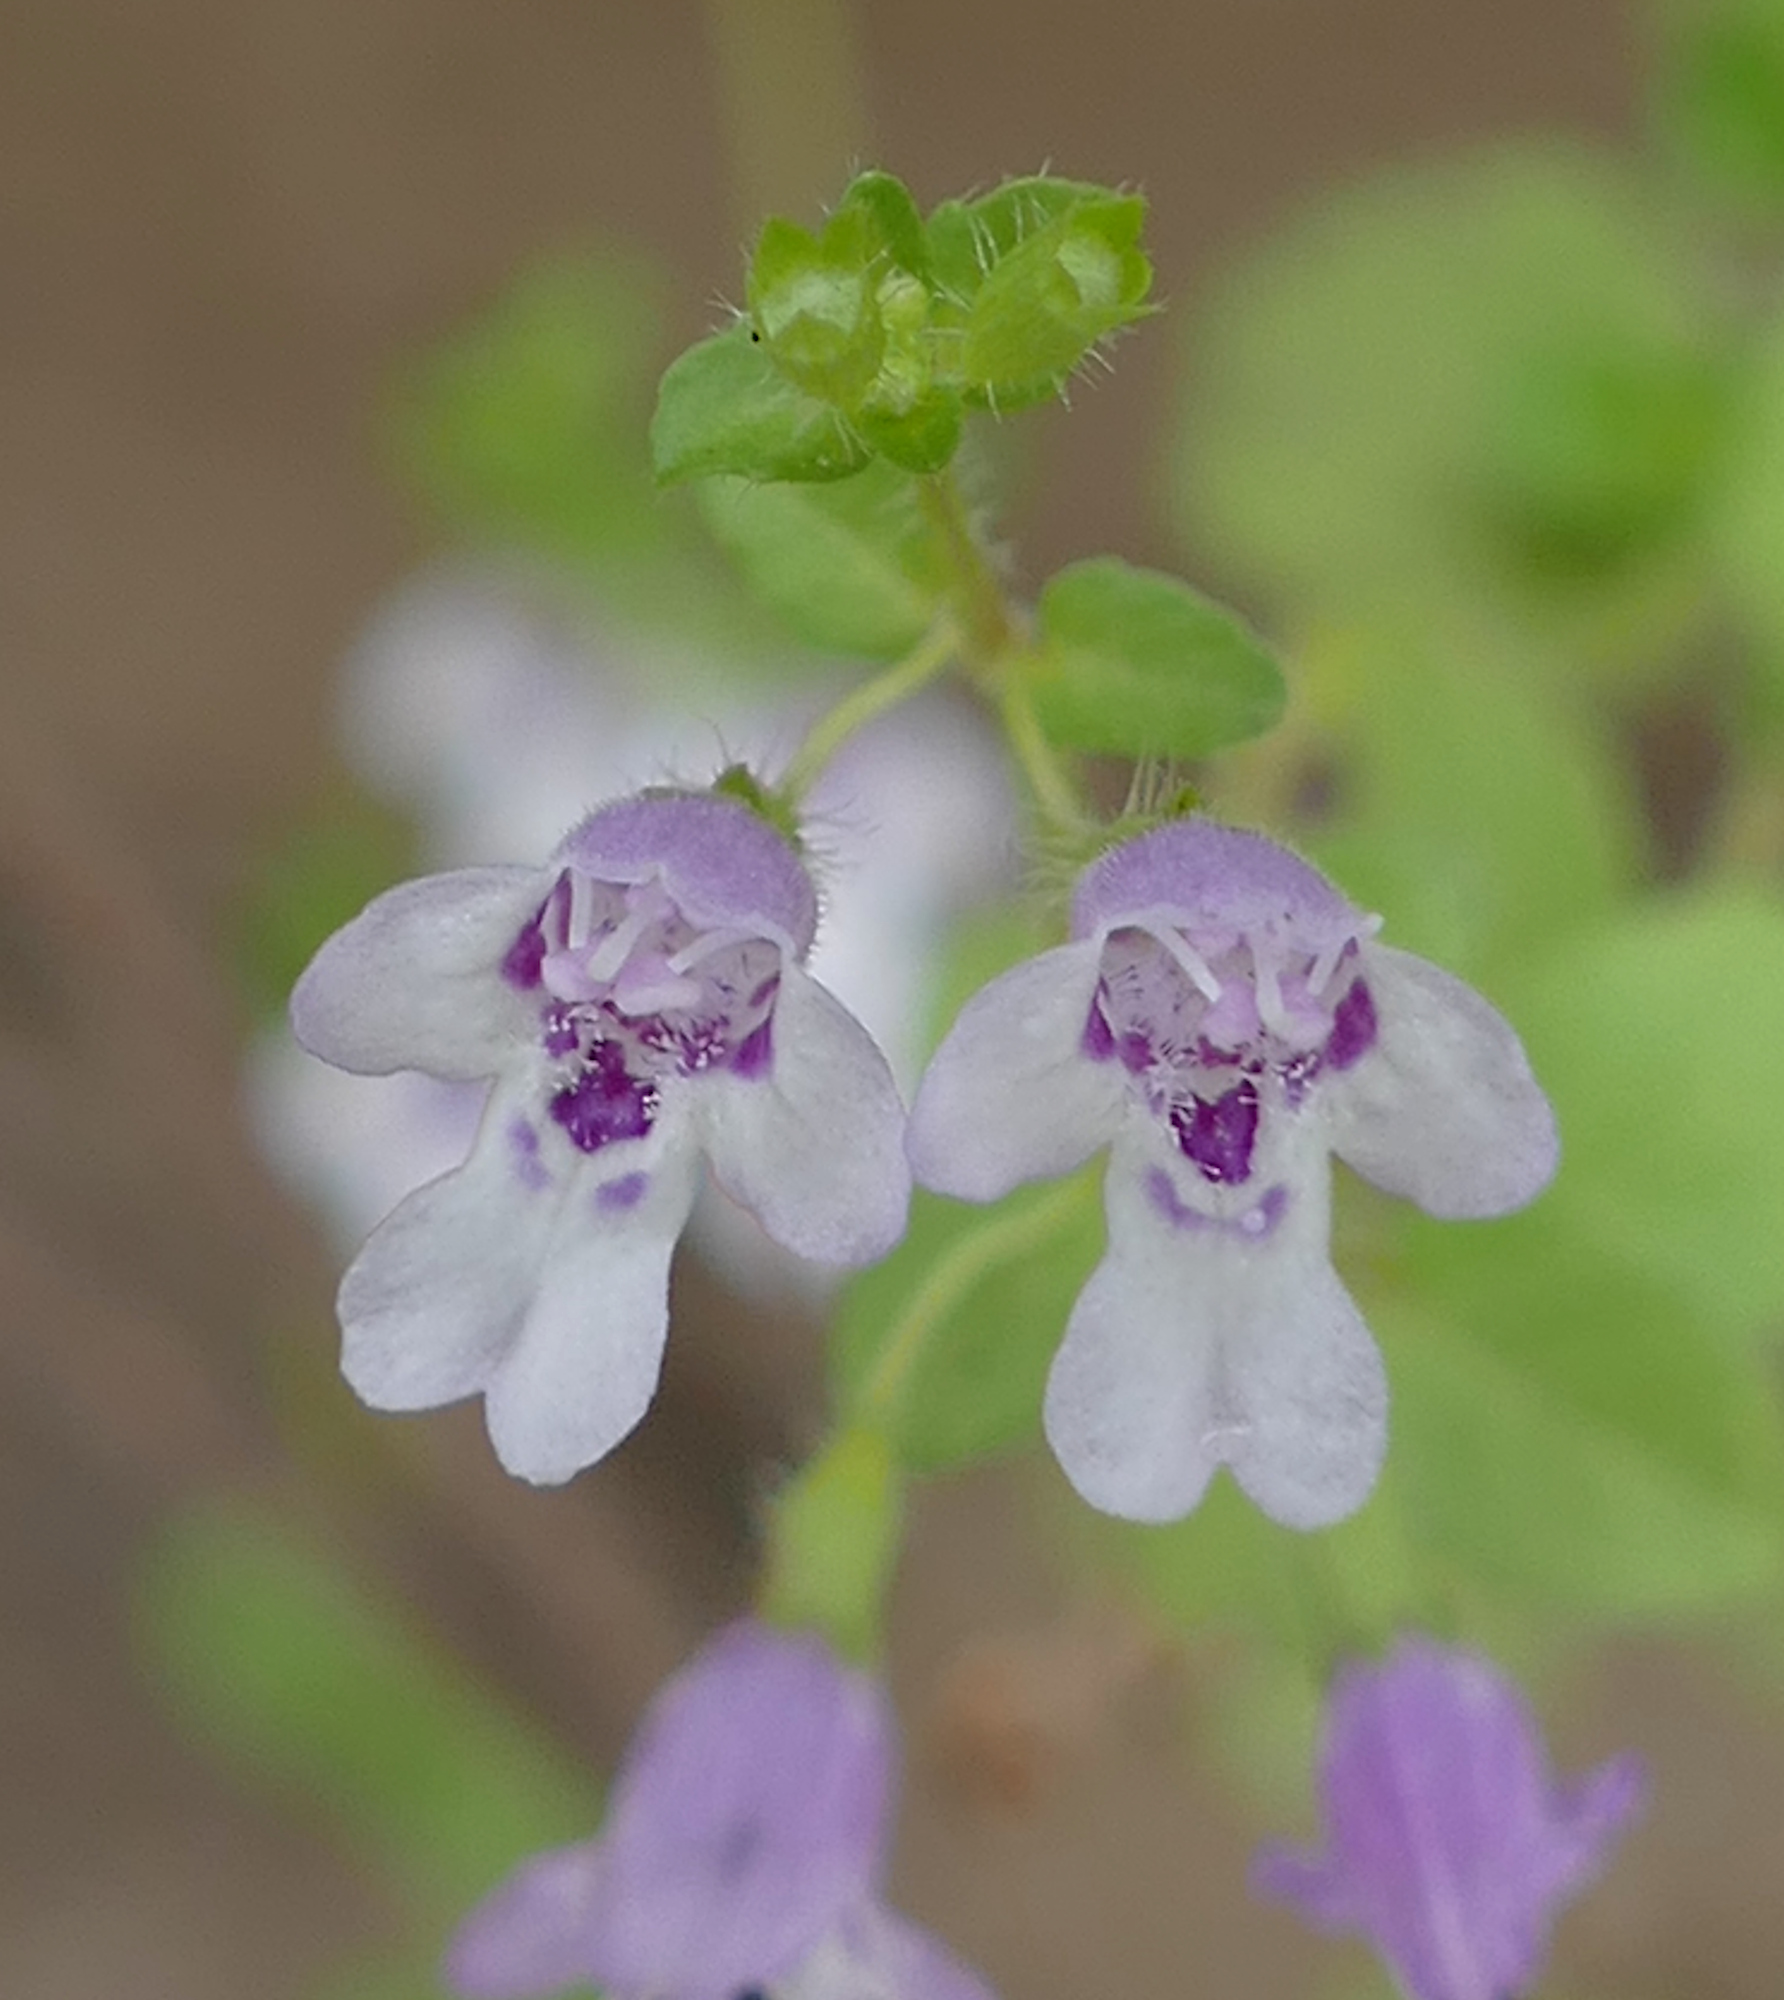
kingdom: Plantae
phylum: Tracheophyta
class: Magnoliopsida
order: Lamiales
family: Lamiaceae
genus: Clinopodium
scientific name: Clinopodium brownei
